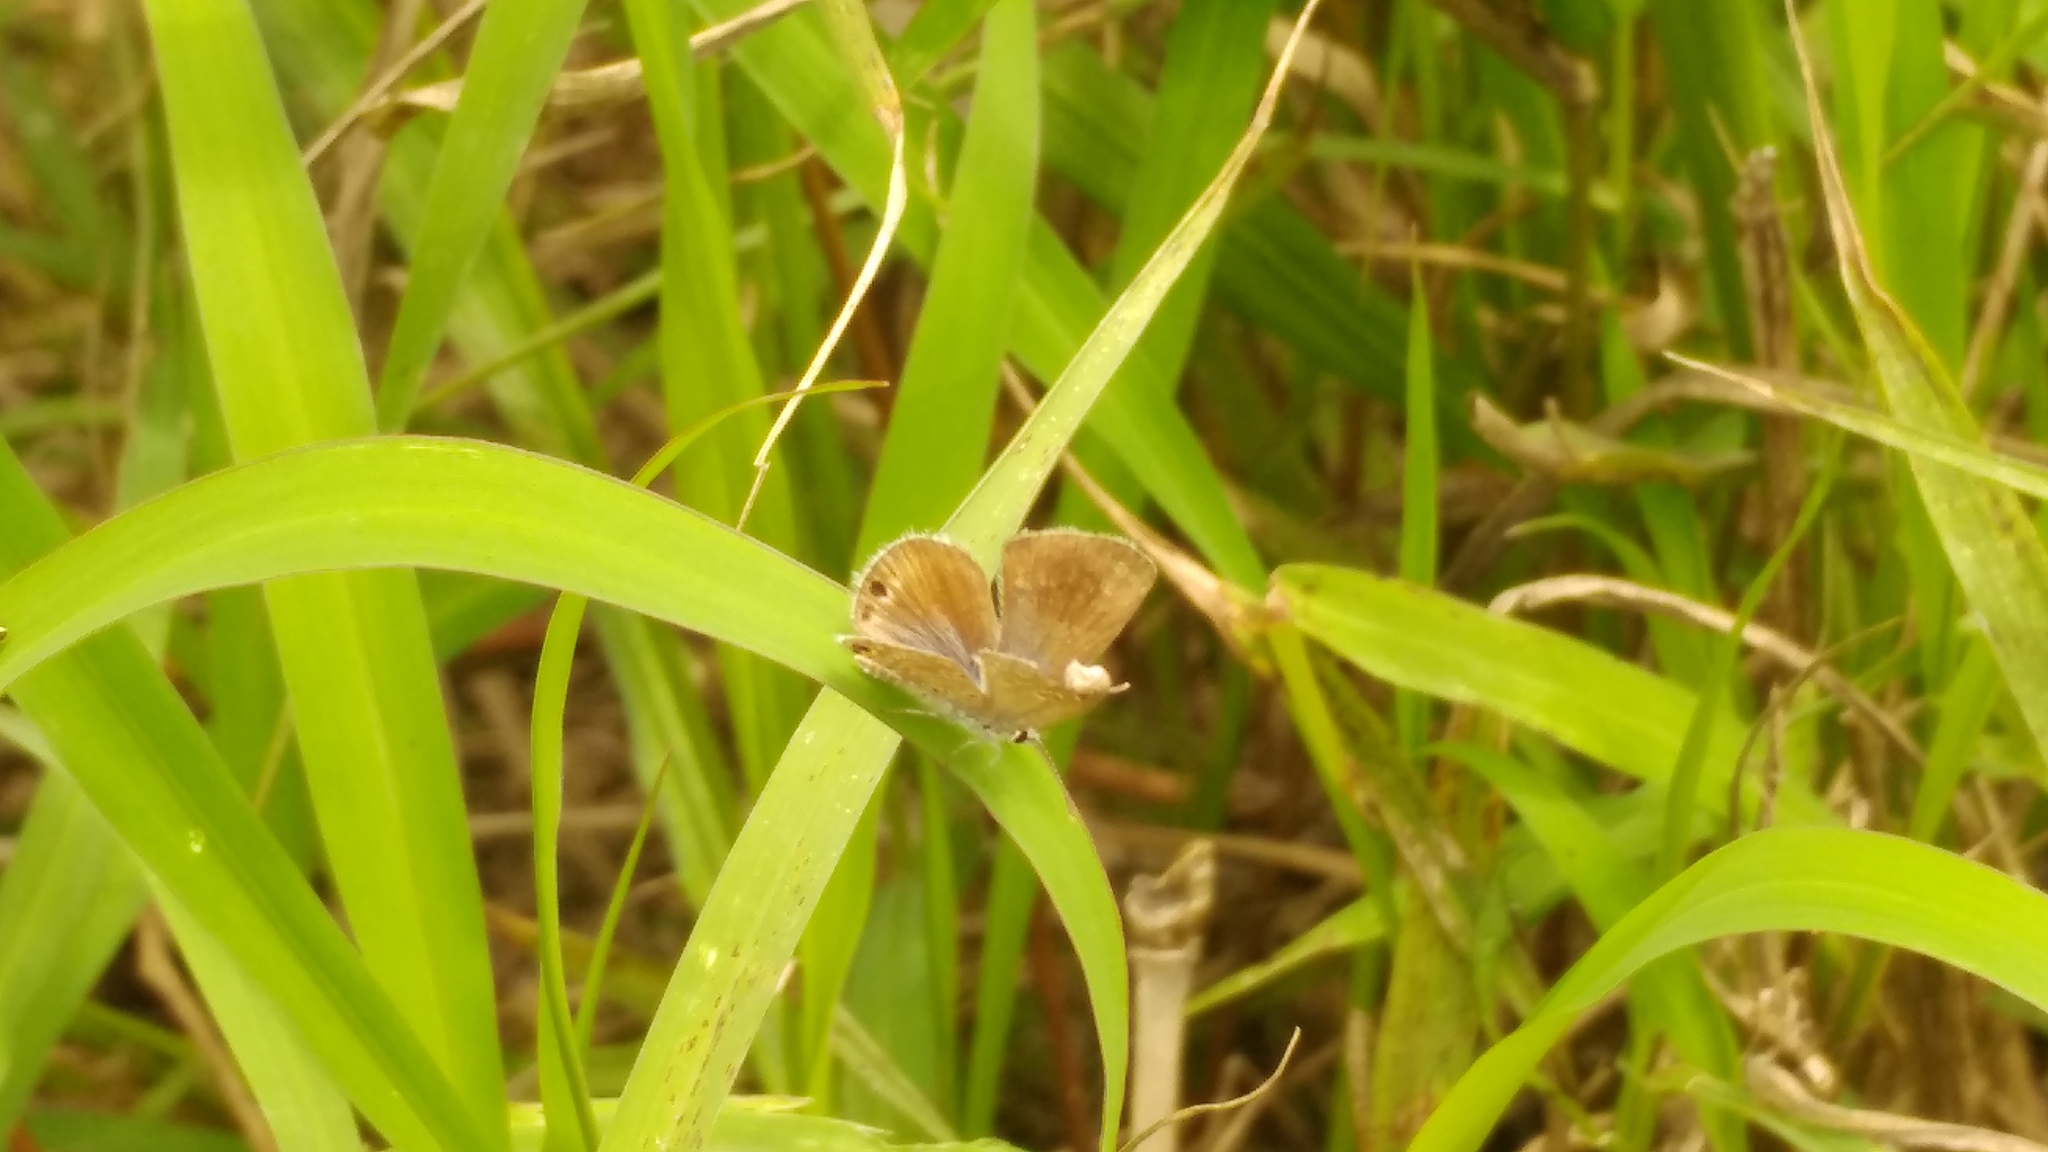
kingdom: Animalia
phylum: Arthropoda
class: Insecta
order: Lepidoptera
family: Lycaenidae
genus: Echinargus
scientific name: Echinargus isola
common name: Reakirt's blue
